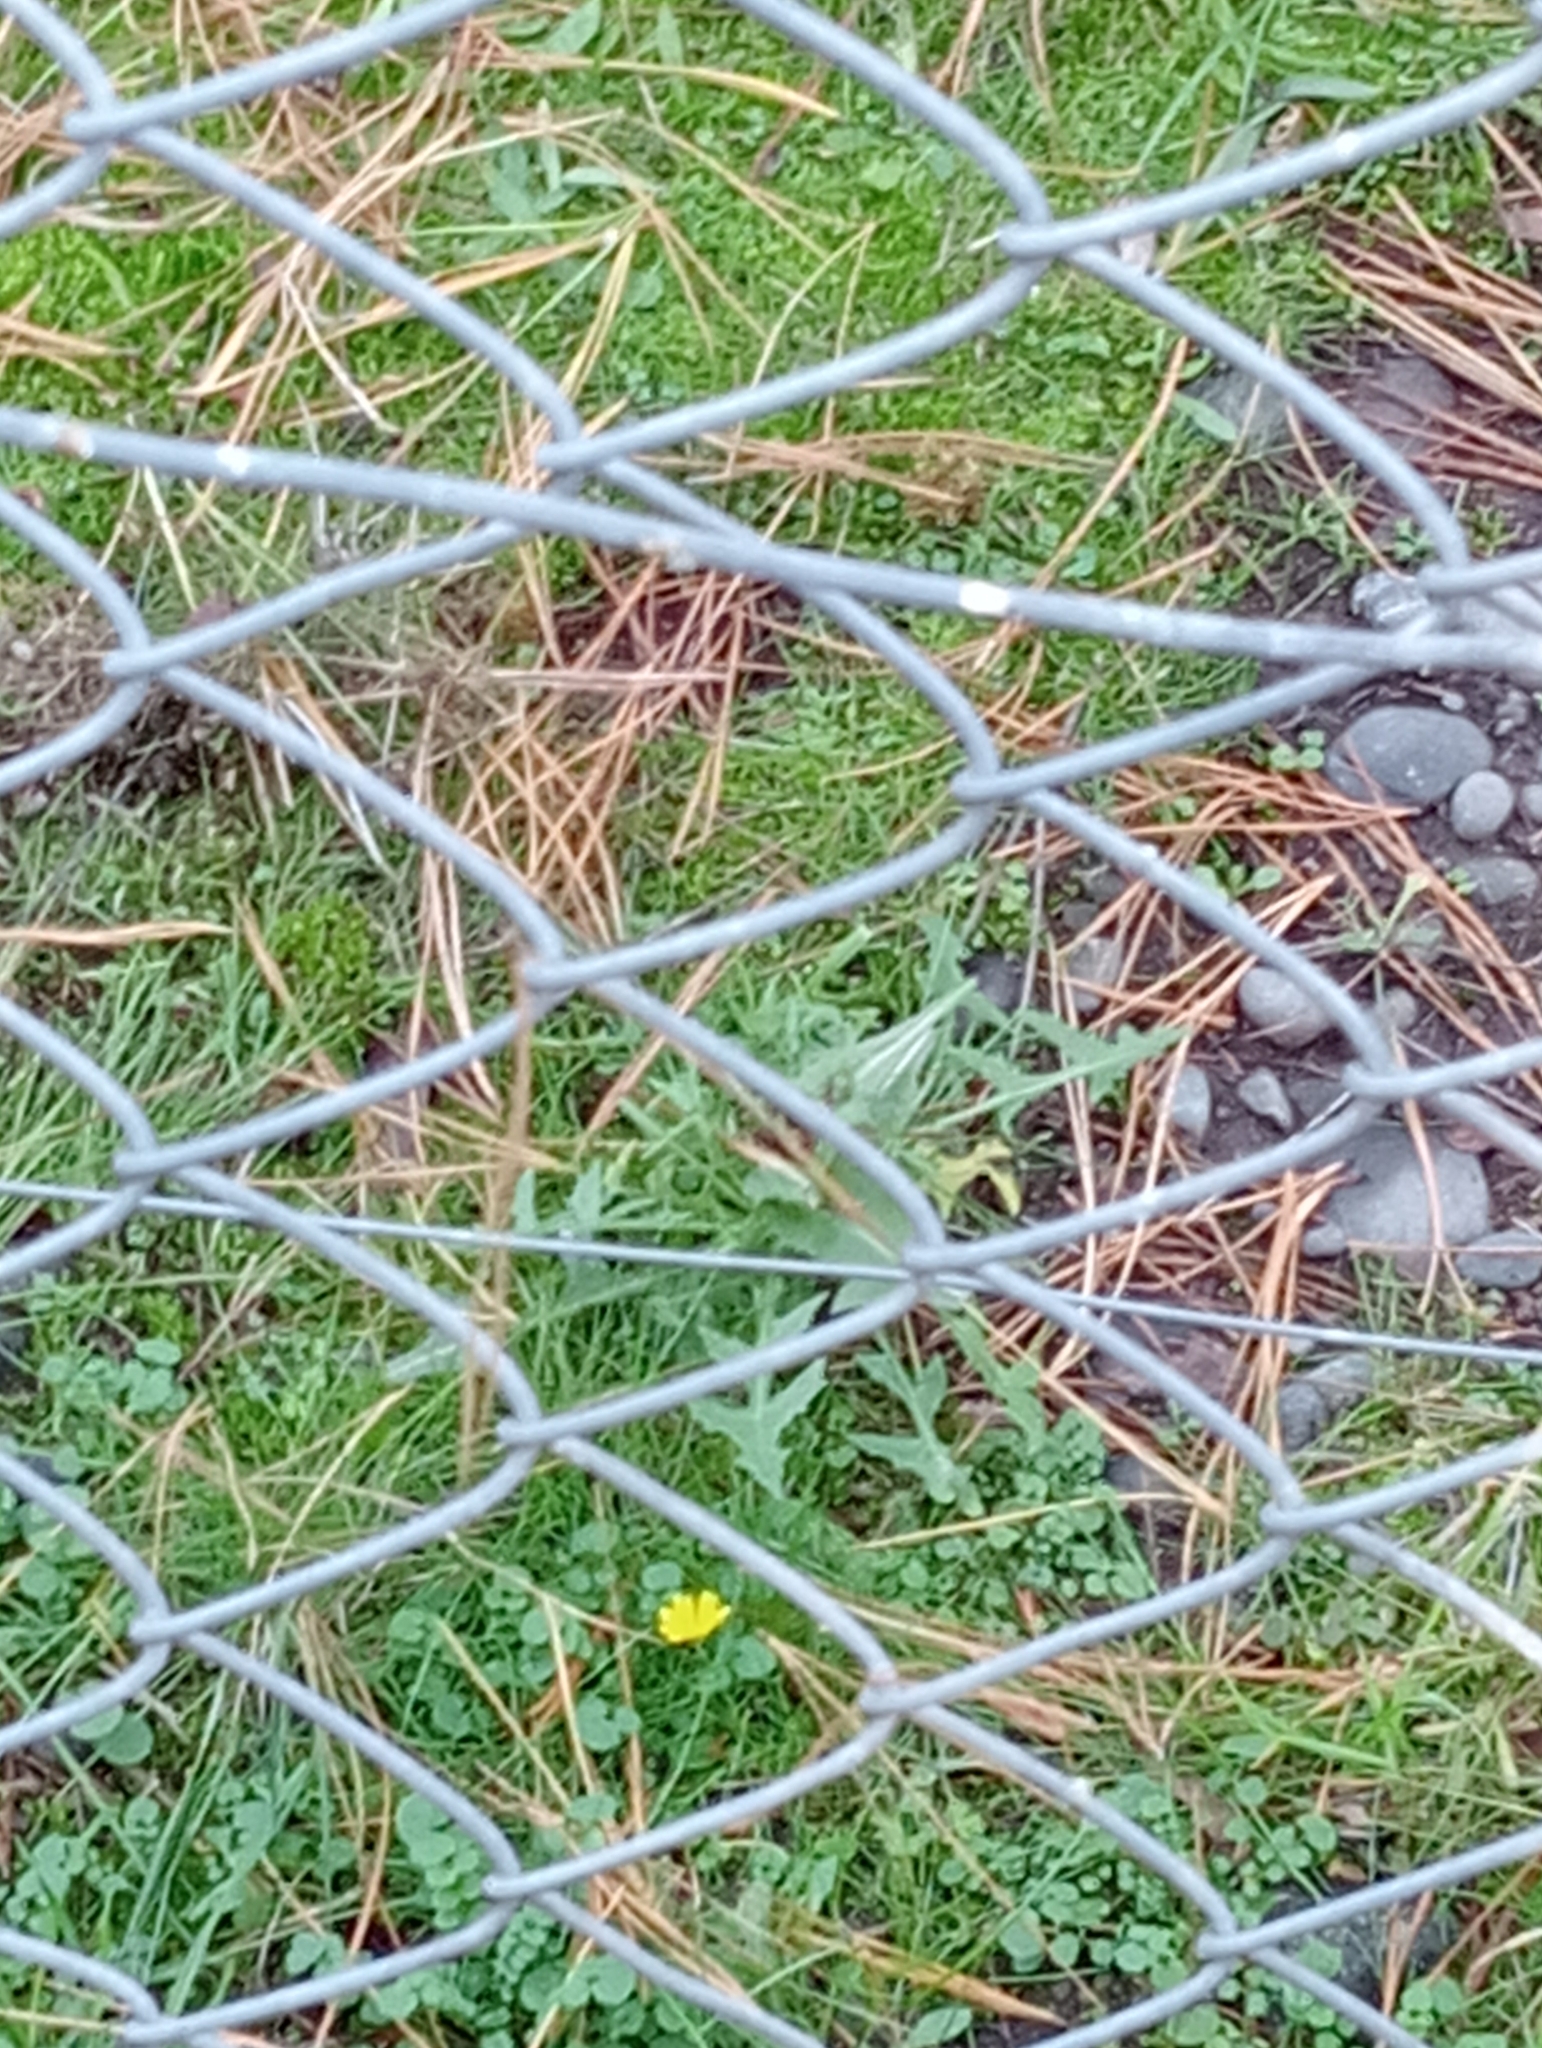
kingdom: Plantae
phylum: Tracheophyta
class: Magnoliopsida
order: Asterales
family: Asteraceae
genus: Sonchus
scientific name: Sonchus oleraceus
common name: Common sowthistle
